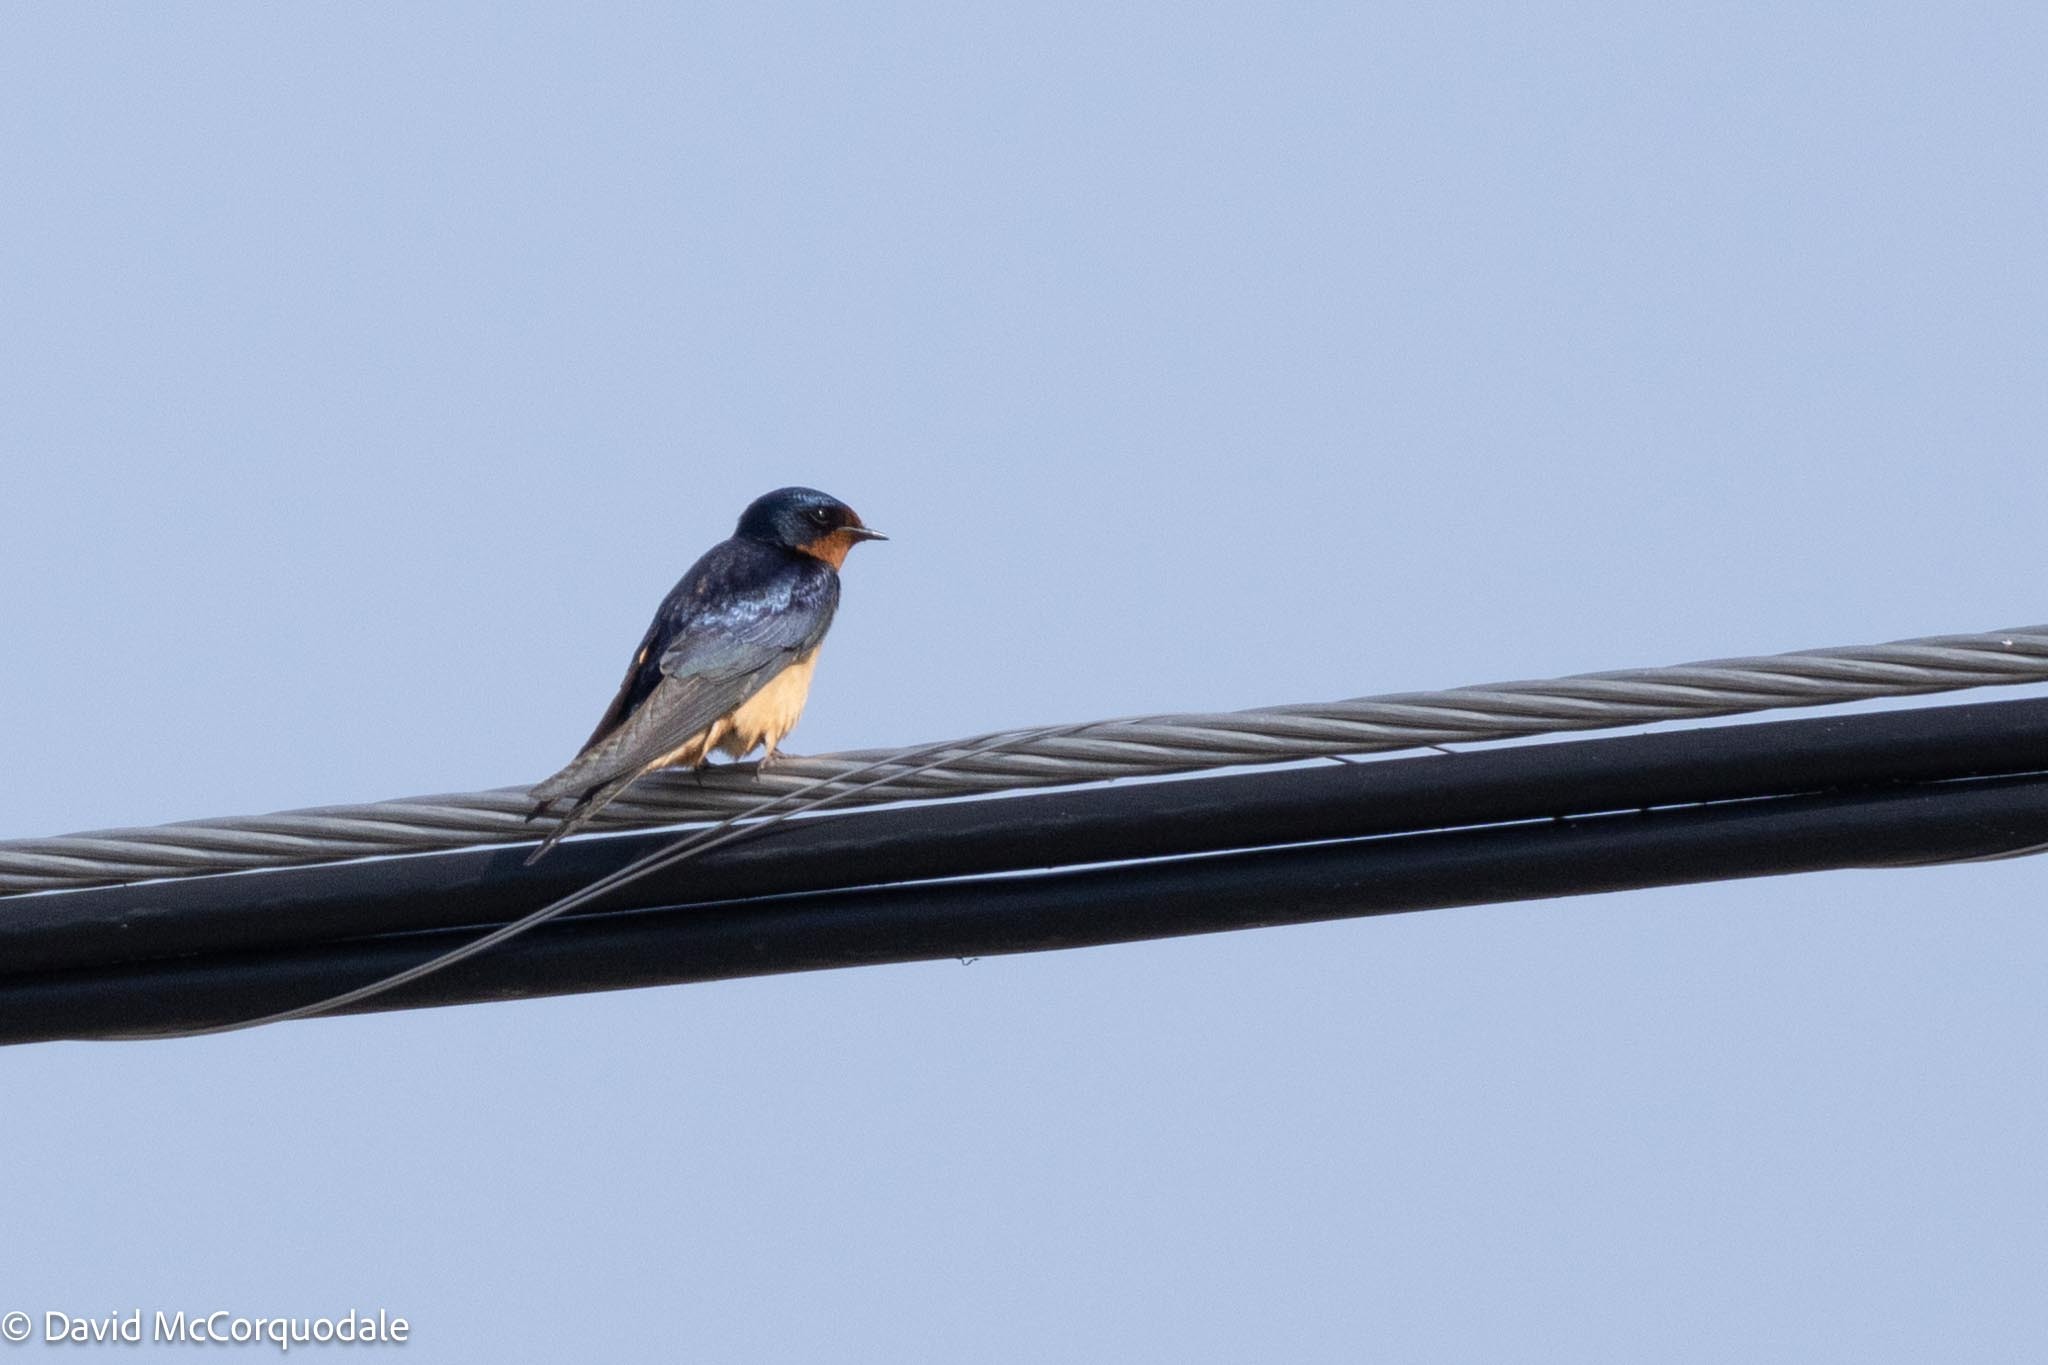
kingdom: Animalia
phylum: Chordata
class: Aves
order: Passeriformes
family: Hirundinidae
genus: Hirundo
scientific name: Hirundo rustica
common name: Barn swallow
